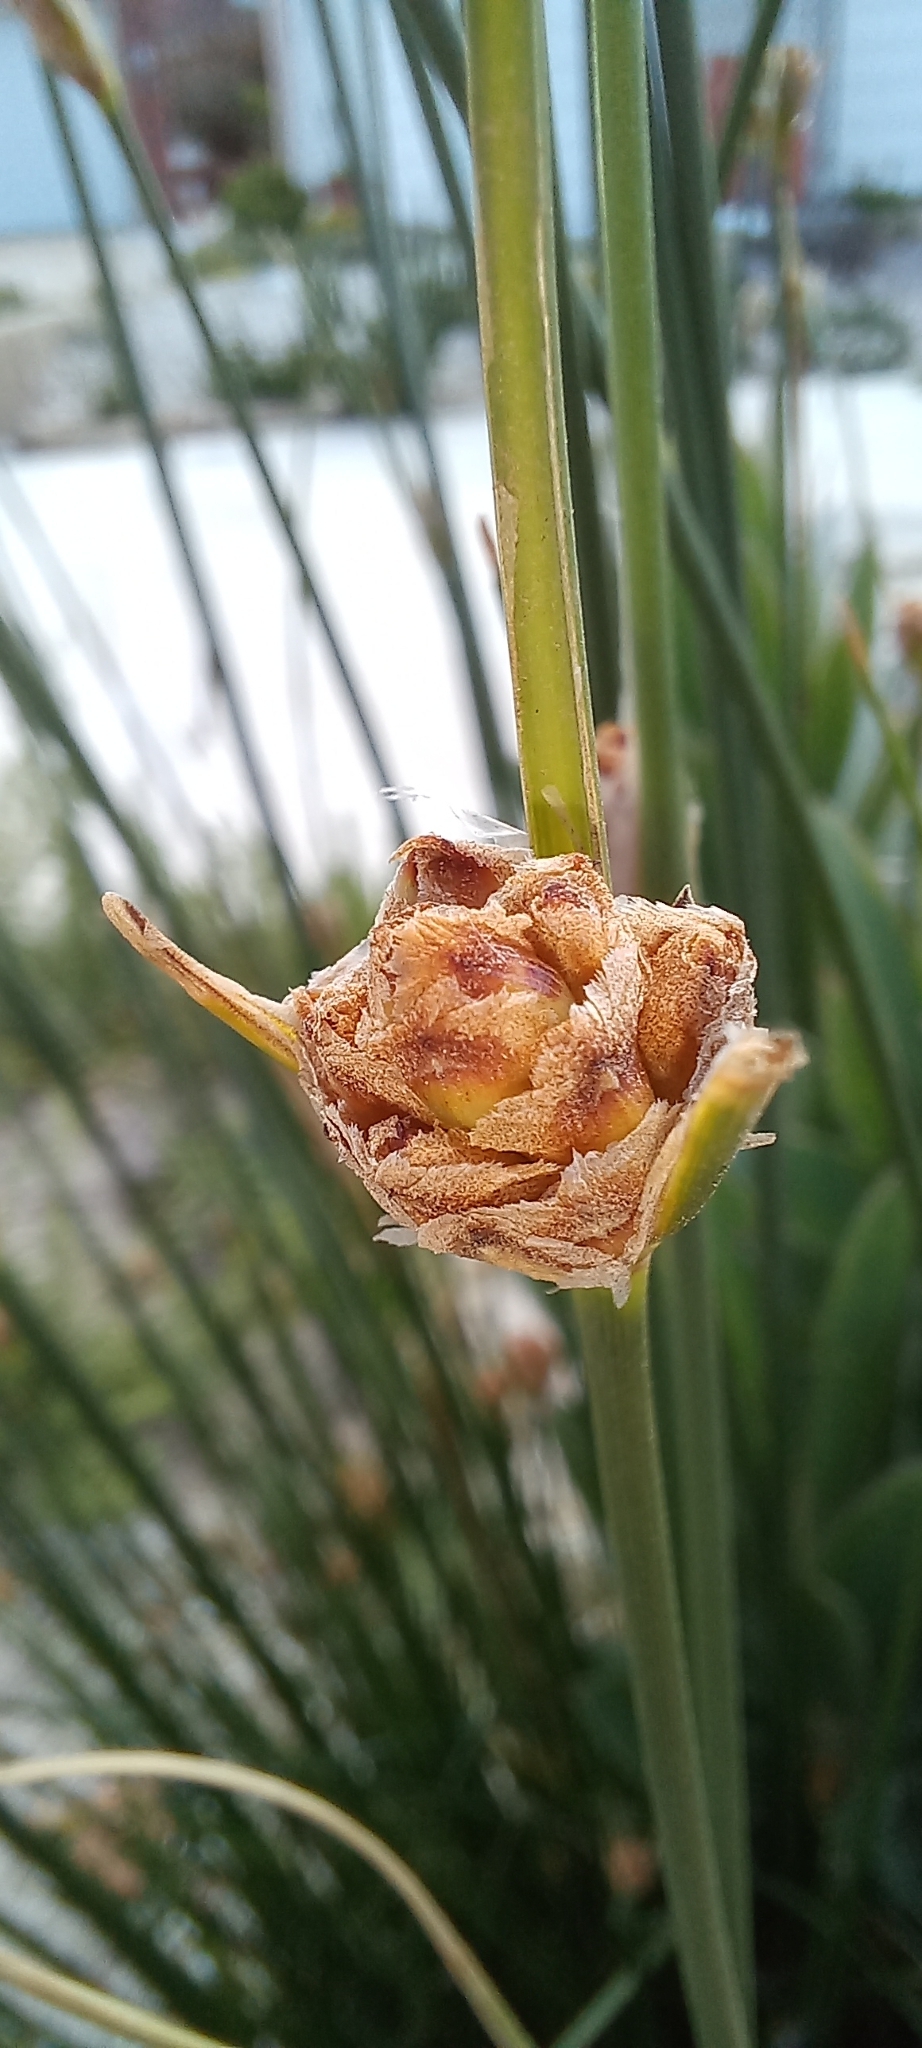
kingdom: Plantae
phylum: Tracheophyta
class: Liliopsida
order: Poales
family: Cyperaceae
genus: Hellmuthia
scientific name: Hellmuthia membranacea
